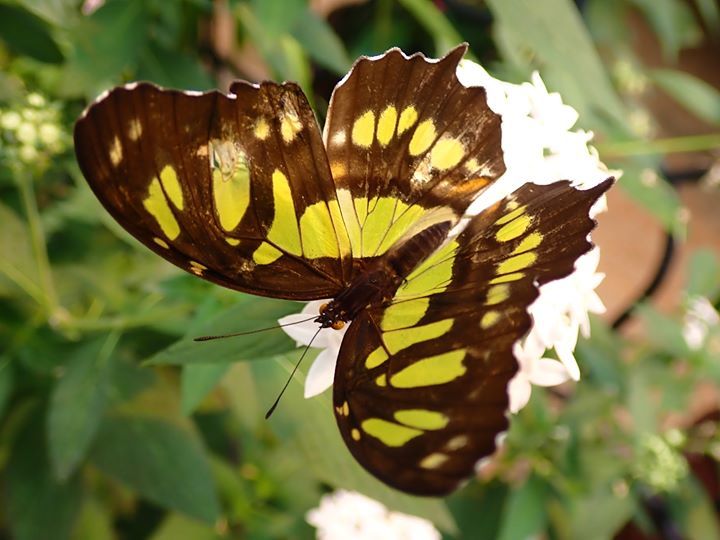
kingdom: Animalia
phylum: Arthropoda
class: Insecta
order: Lepidoptera
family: Nymphalidae
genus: Siproeta
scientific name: Siproeta stelenes
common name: Malachite
